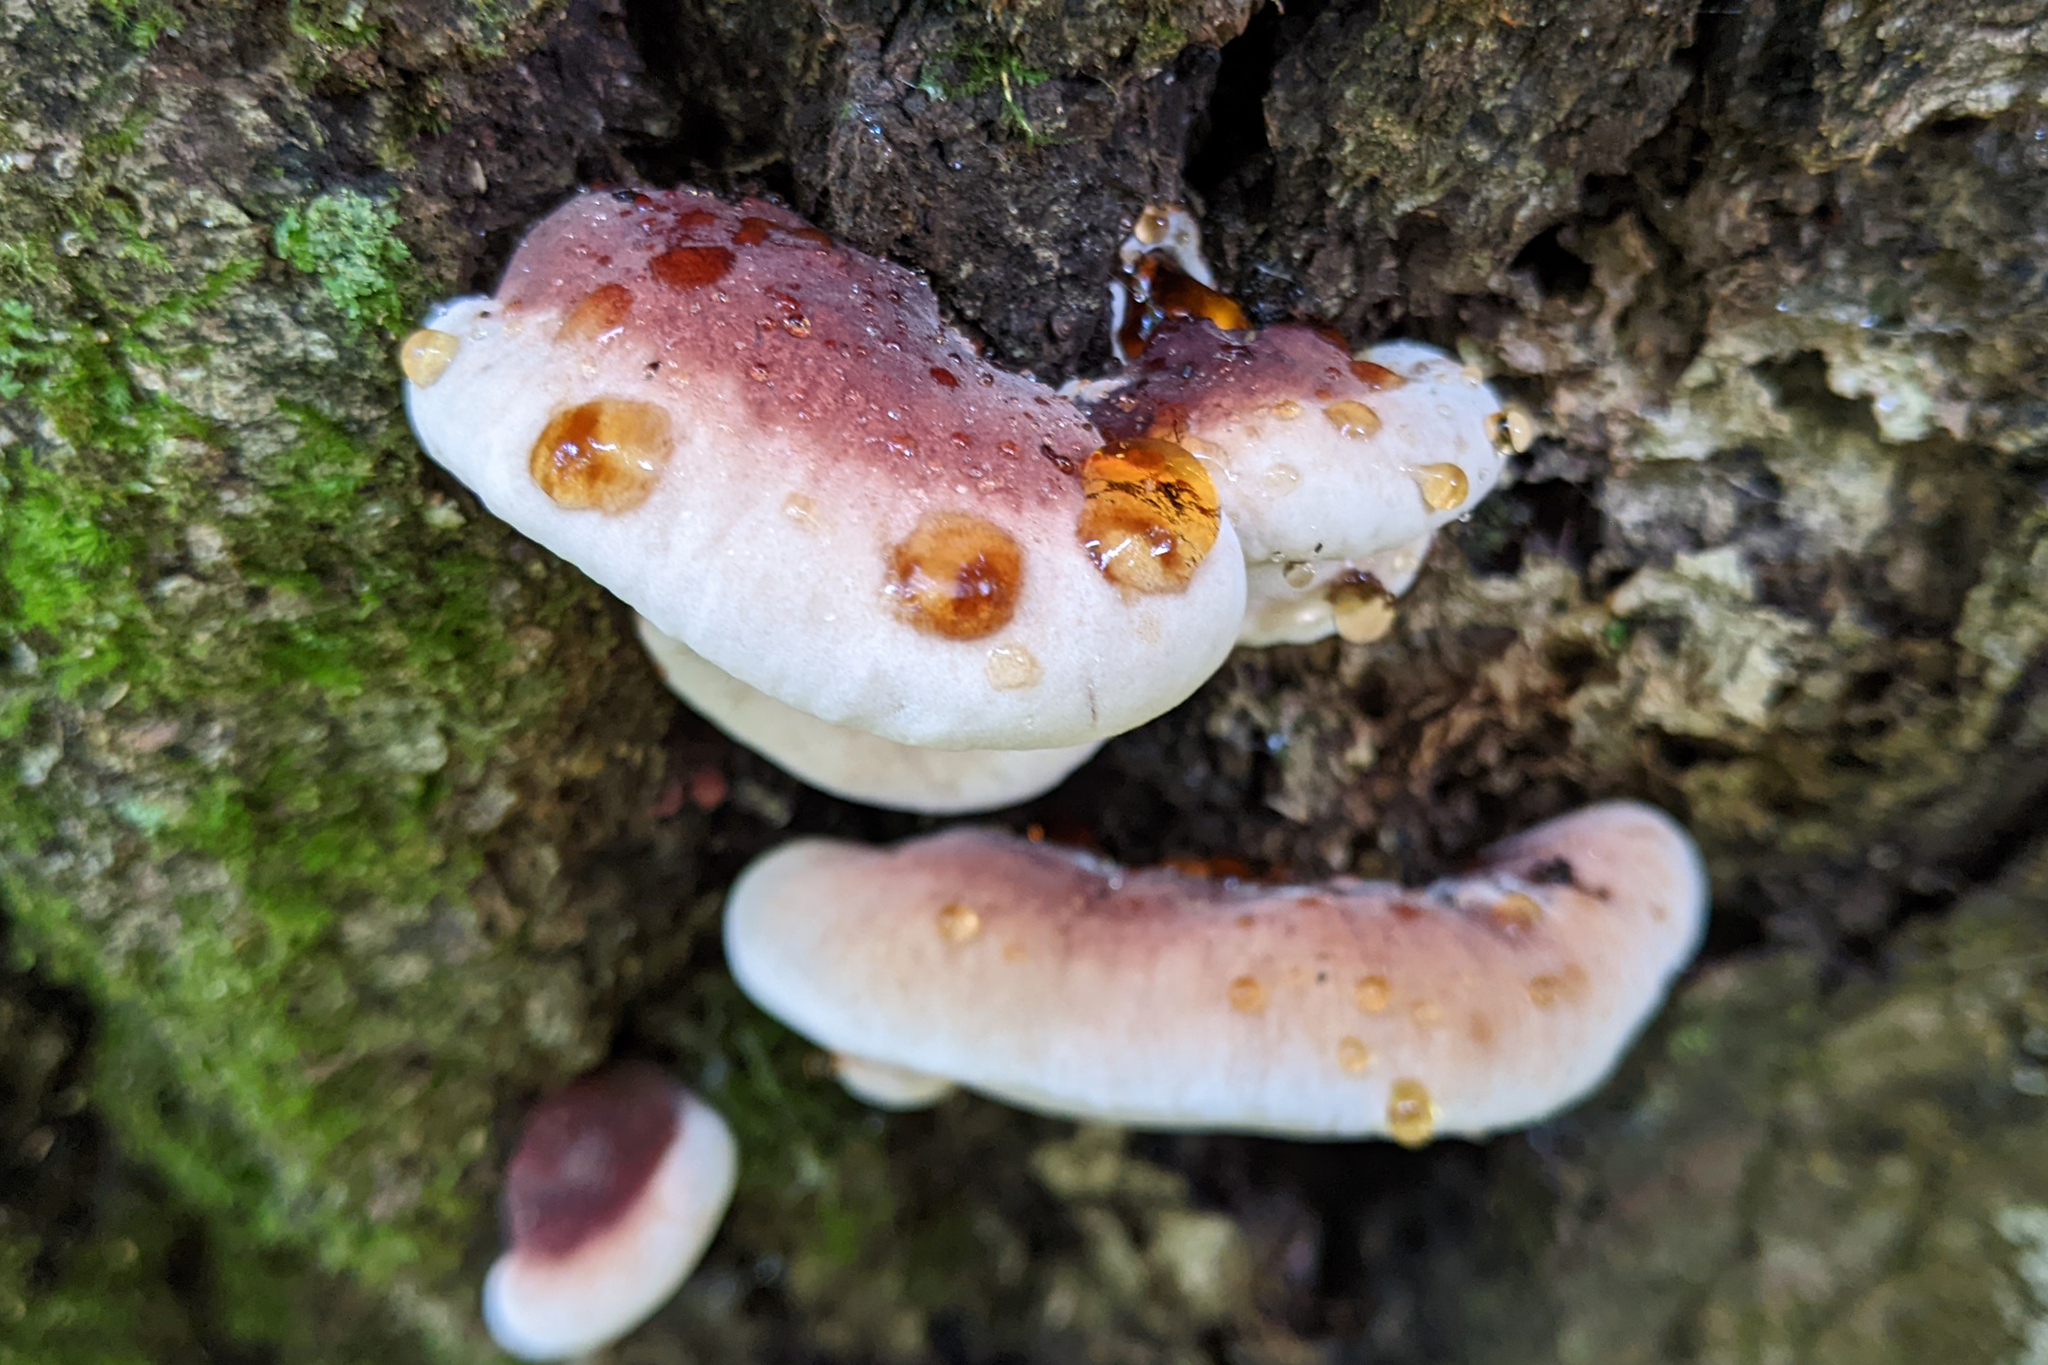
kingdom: Fungi
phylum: Basidiomycota
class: Agaricomycetes
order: Polyporales
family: Ischnodermataceae
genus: Ischnoderma
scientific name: Ischnoderma resinosum
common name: Resinous polypore
